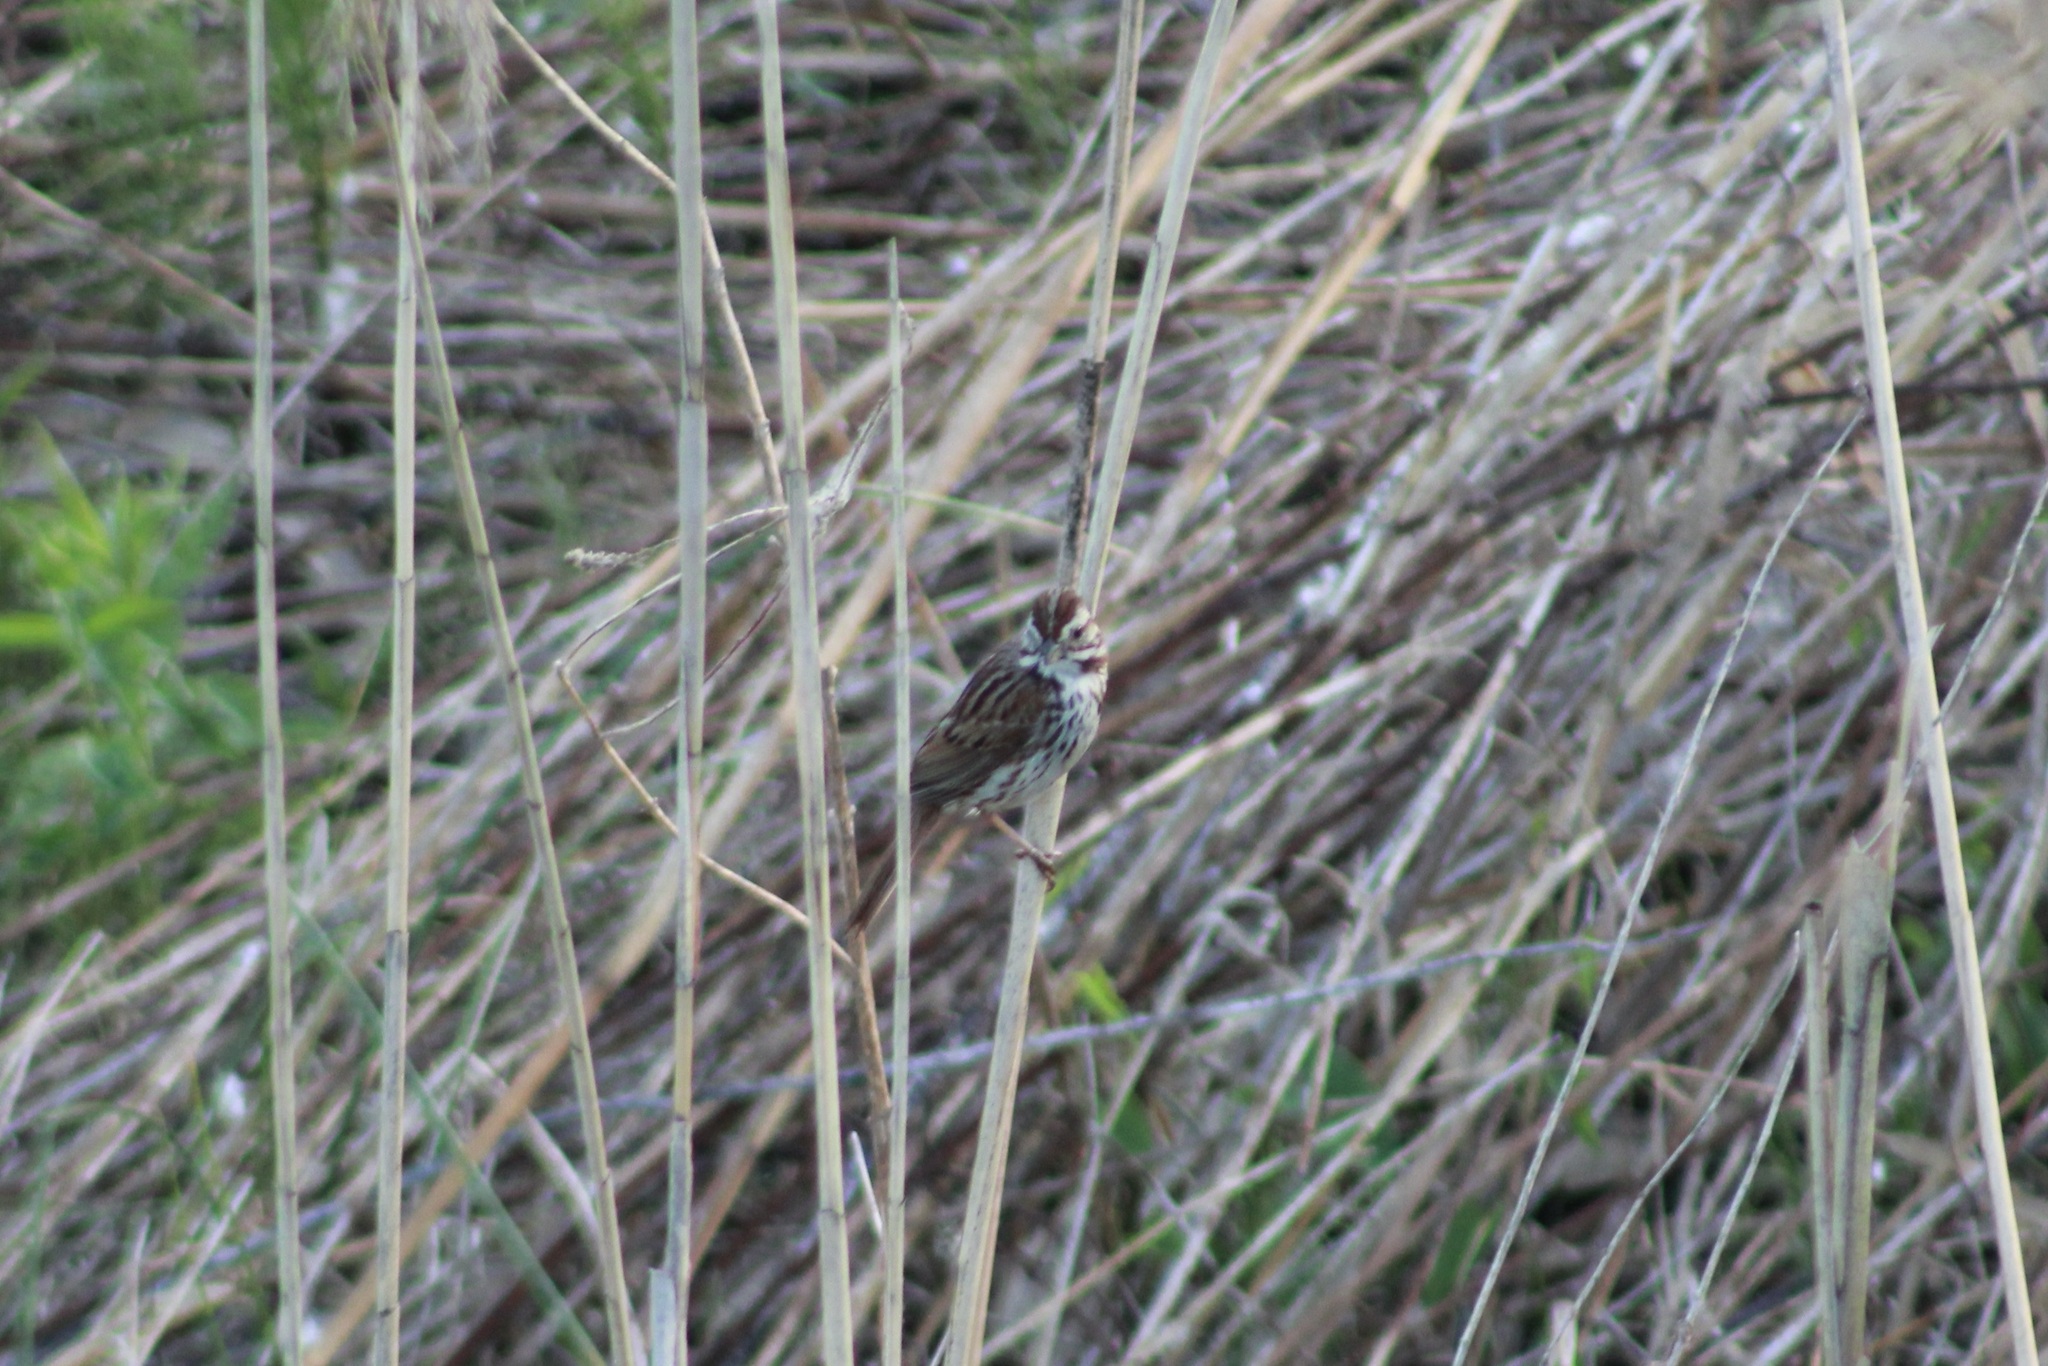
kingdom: Animalia
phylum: Chordata
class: Aves
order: Passeriformes
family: Passerellidae
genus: Melospiza
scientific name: Melospiza melodia
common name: Song sparrow
